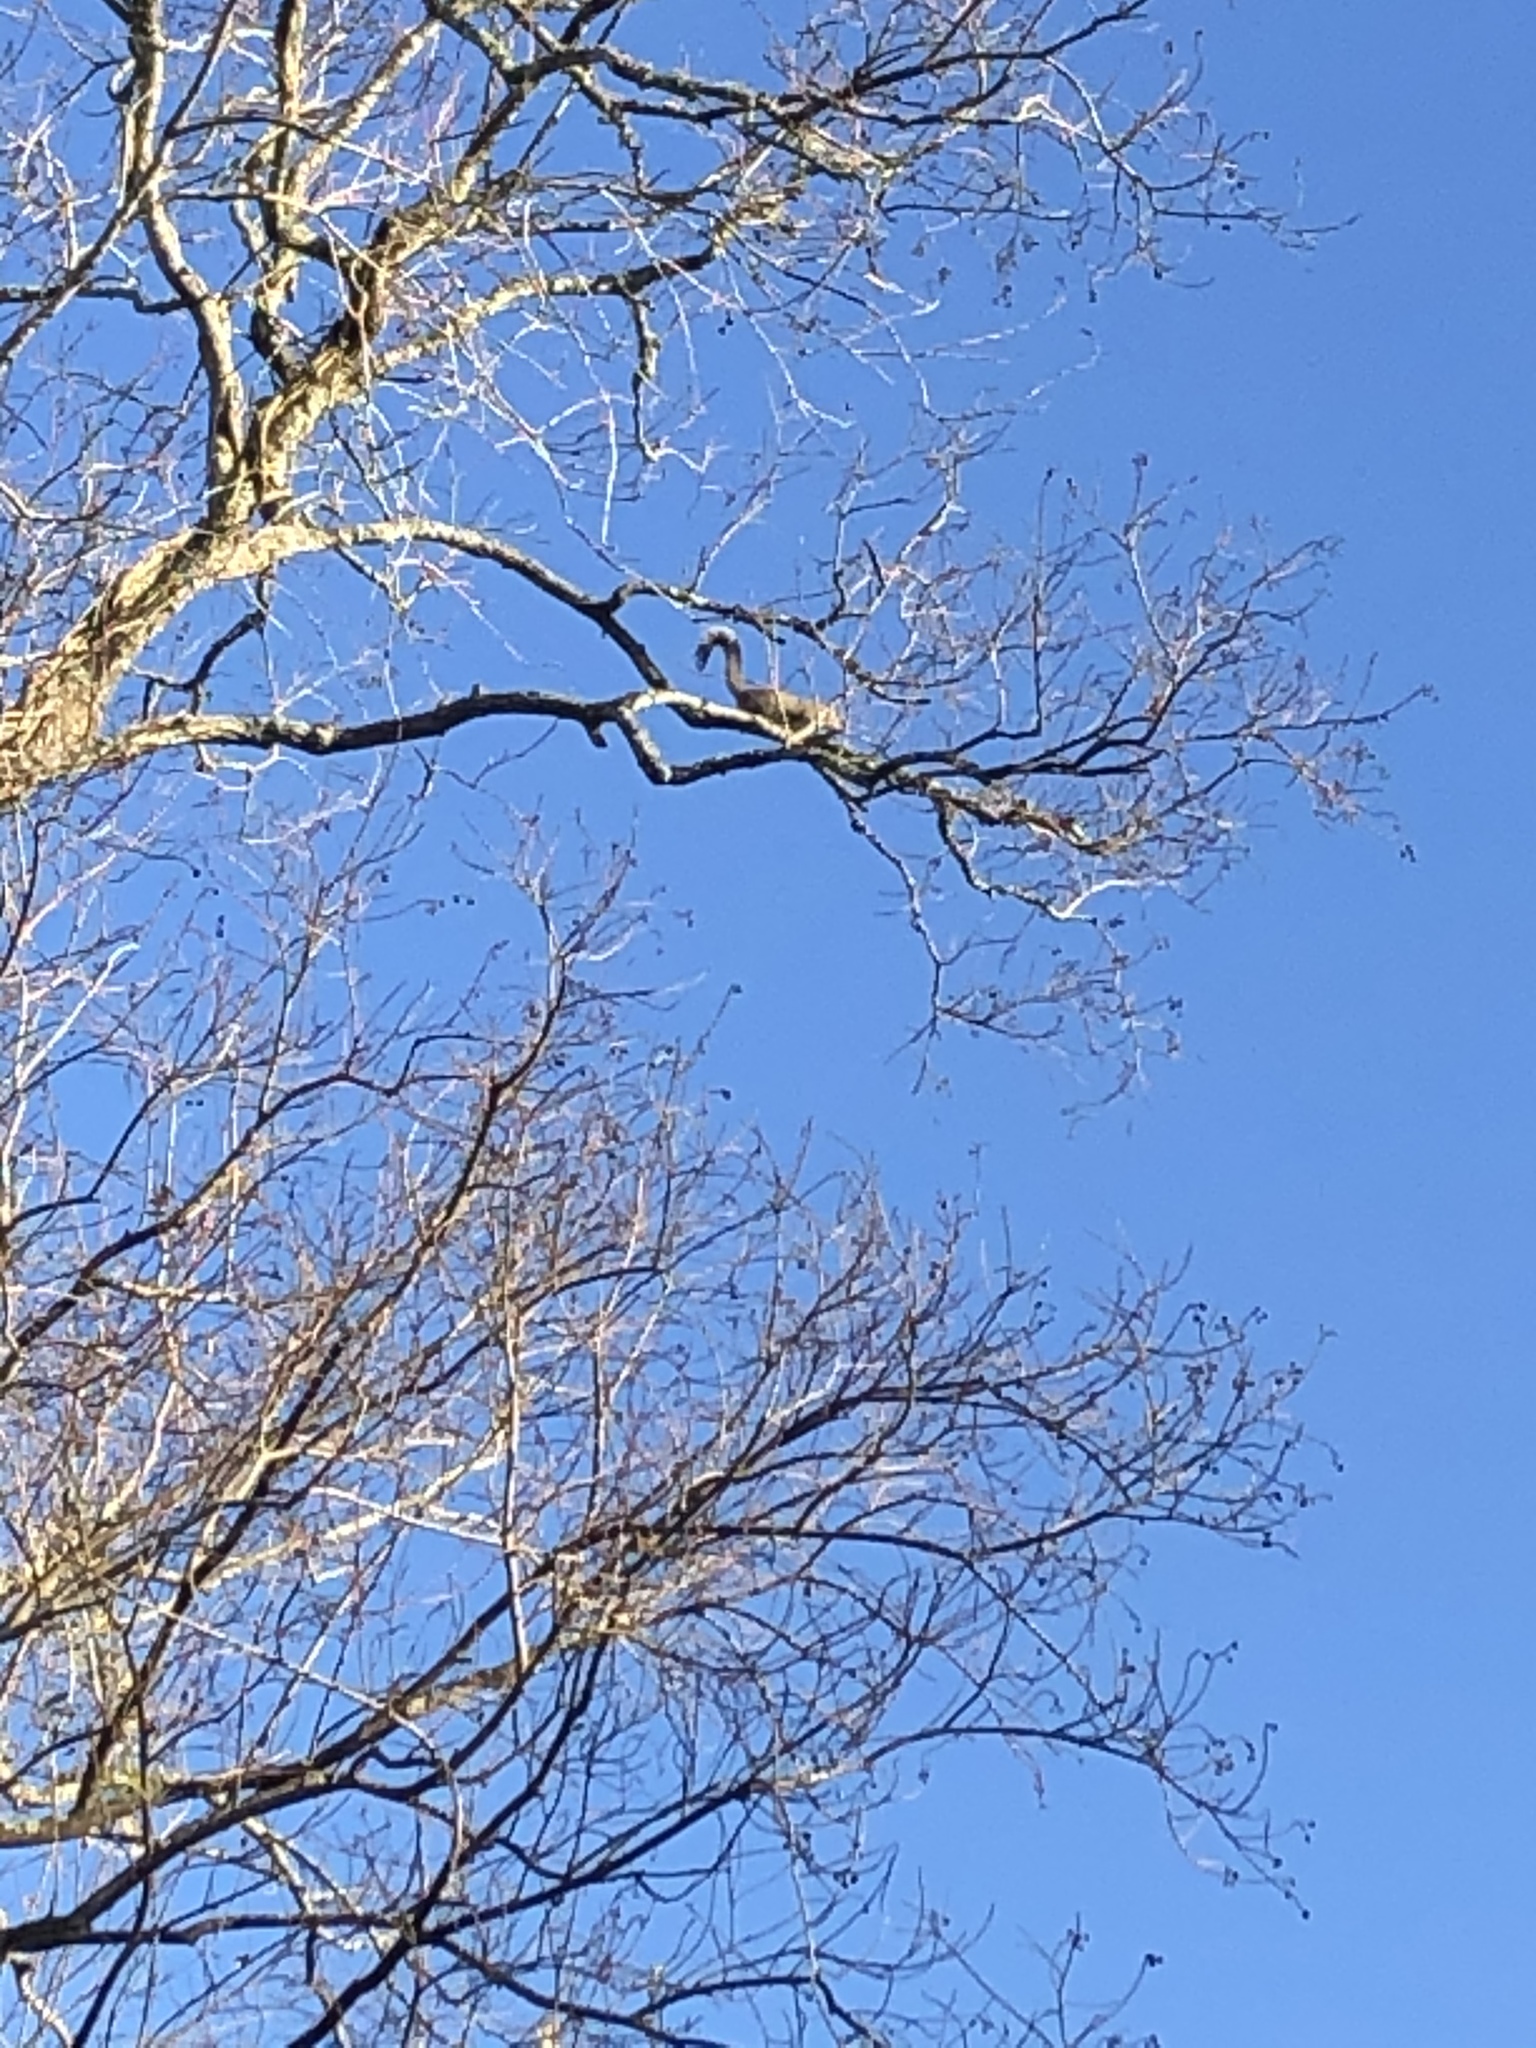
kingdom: Animalia
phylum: Chordata
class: Mammalia
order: Rodentia
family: Sciuridae
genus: Sciurus
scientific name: Sciurus carolinensis
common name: Eastern gray squirrel
